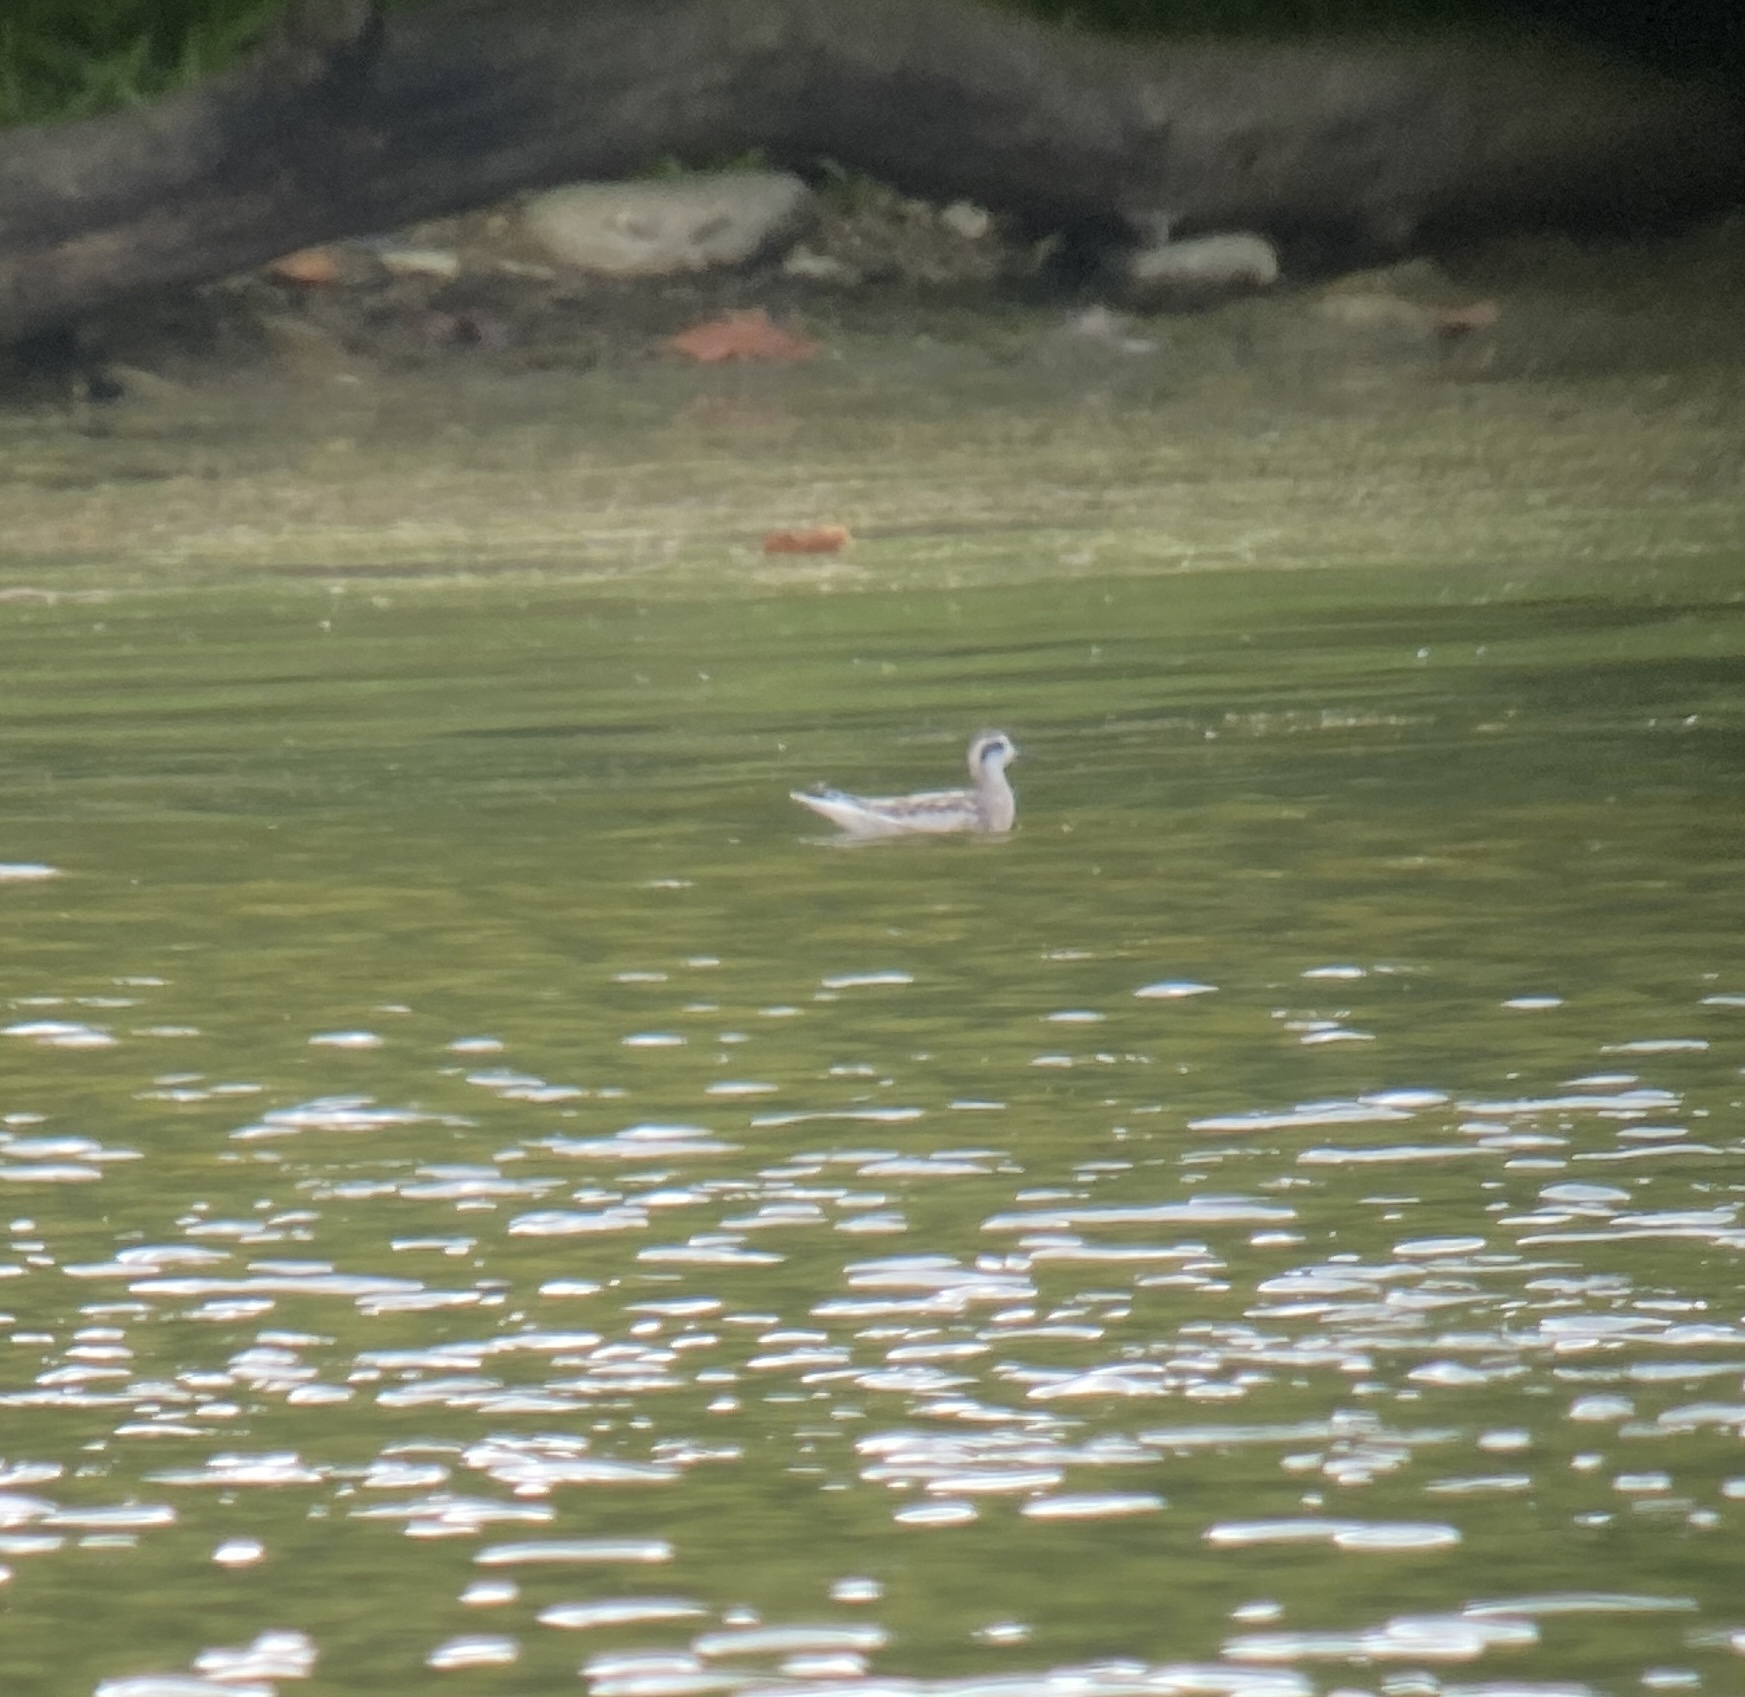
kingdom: Animalia
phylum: Chordata
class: Aves
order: Charadriiformes
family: Scolopacidae
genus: Phalaropus
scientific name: Phalaropus lobatus
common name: Red-necked phalarope
